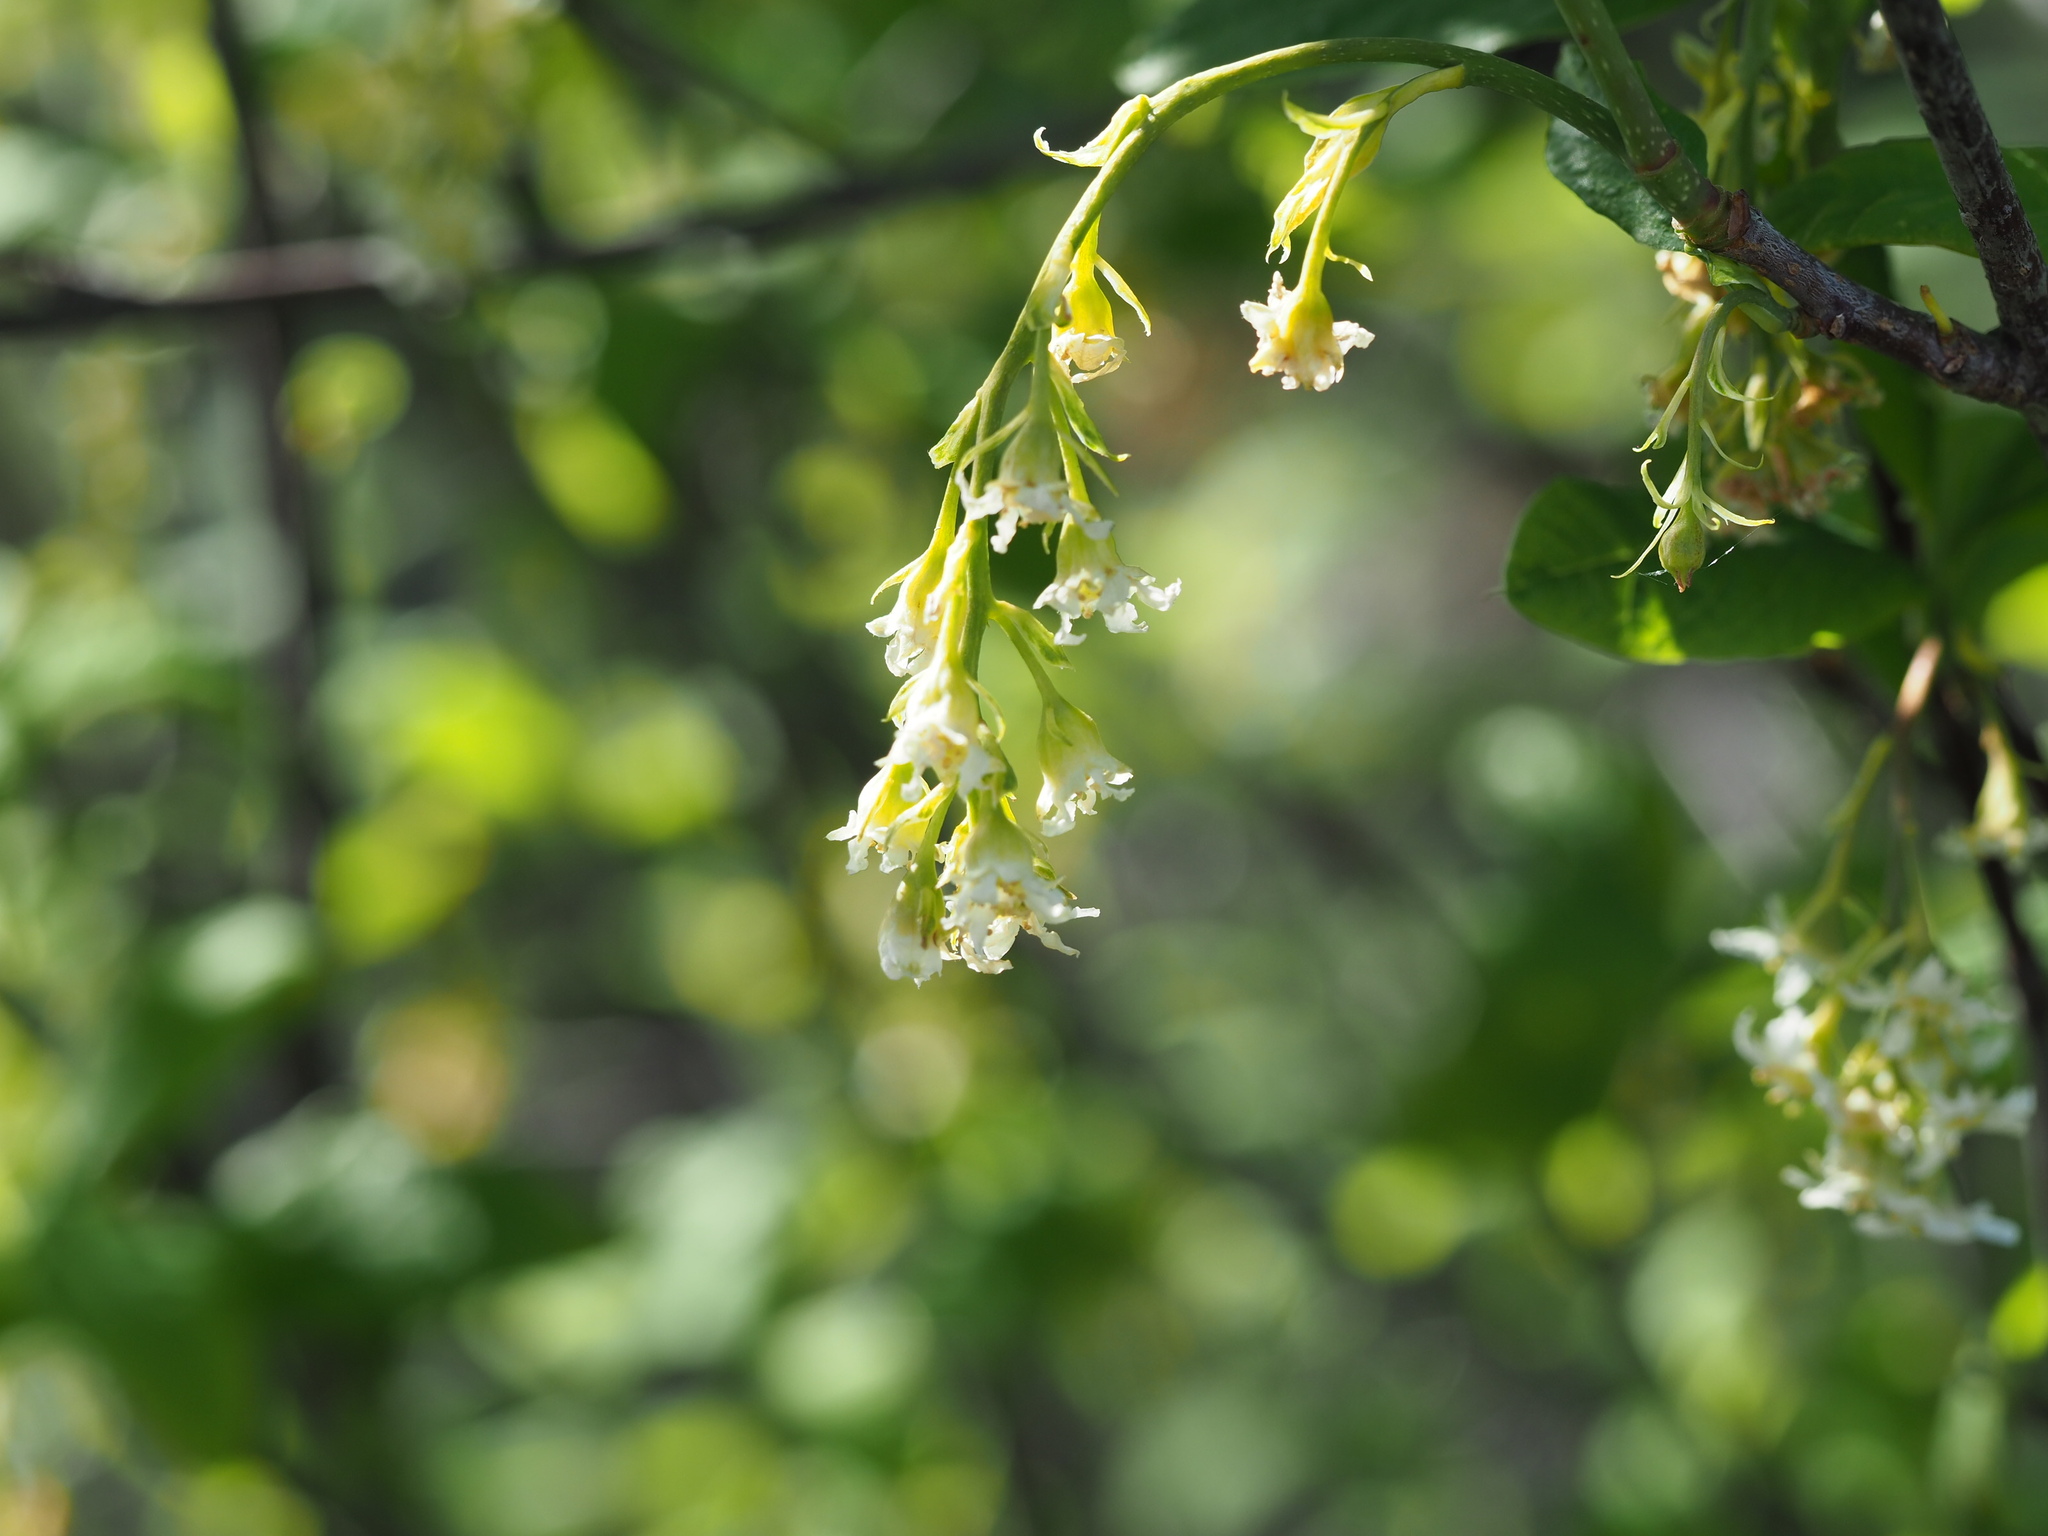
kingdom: Plantae
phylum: Tracheophyta
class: Magnoliopsida
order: Rosales
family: Rosaceae
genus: Oemleria
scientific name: Oemleria cerasiformis
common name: Osoberry
